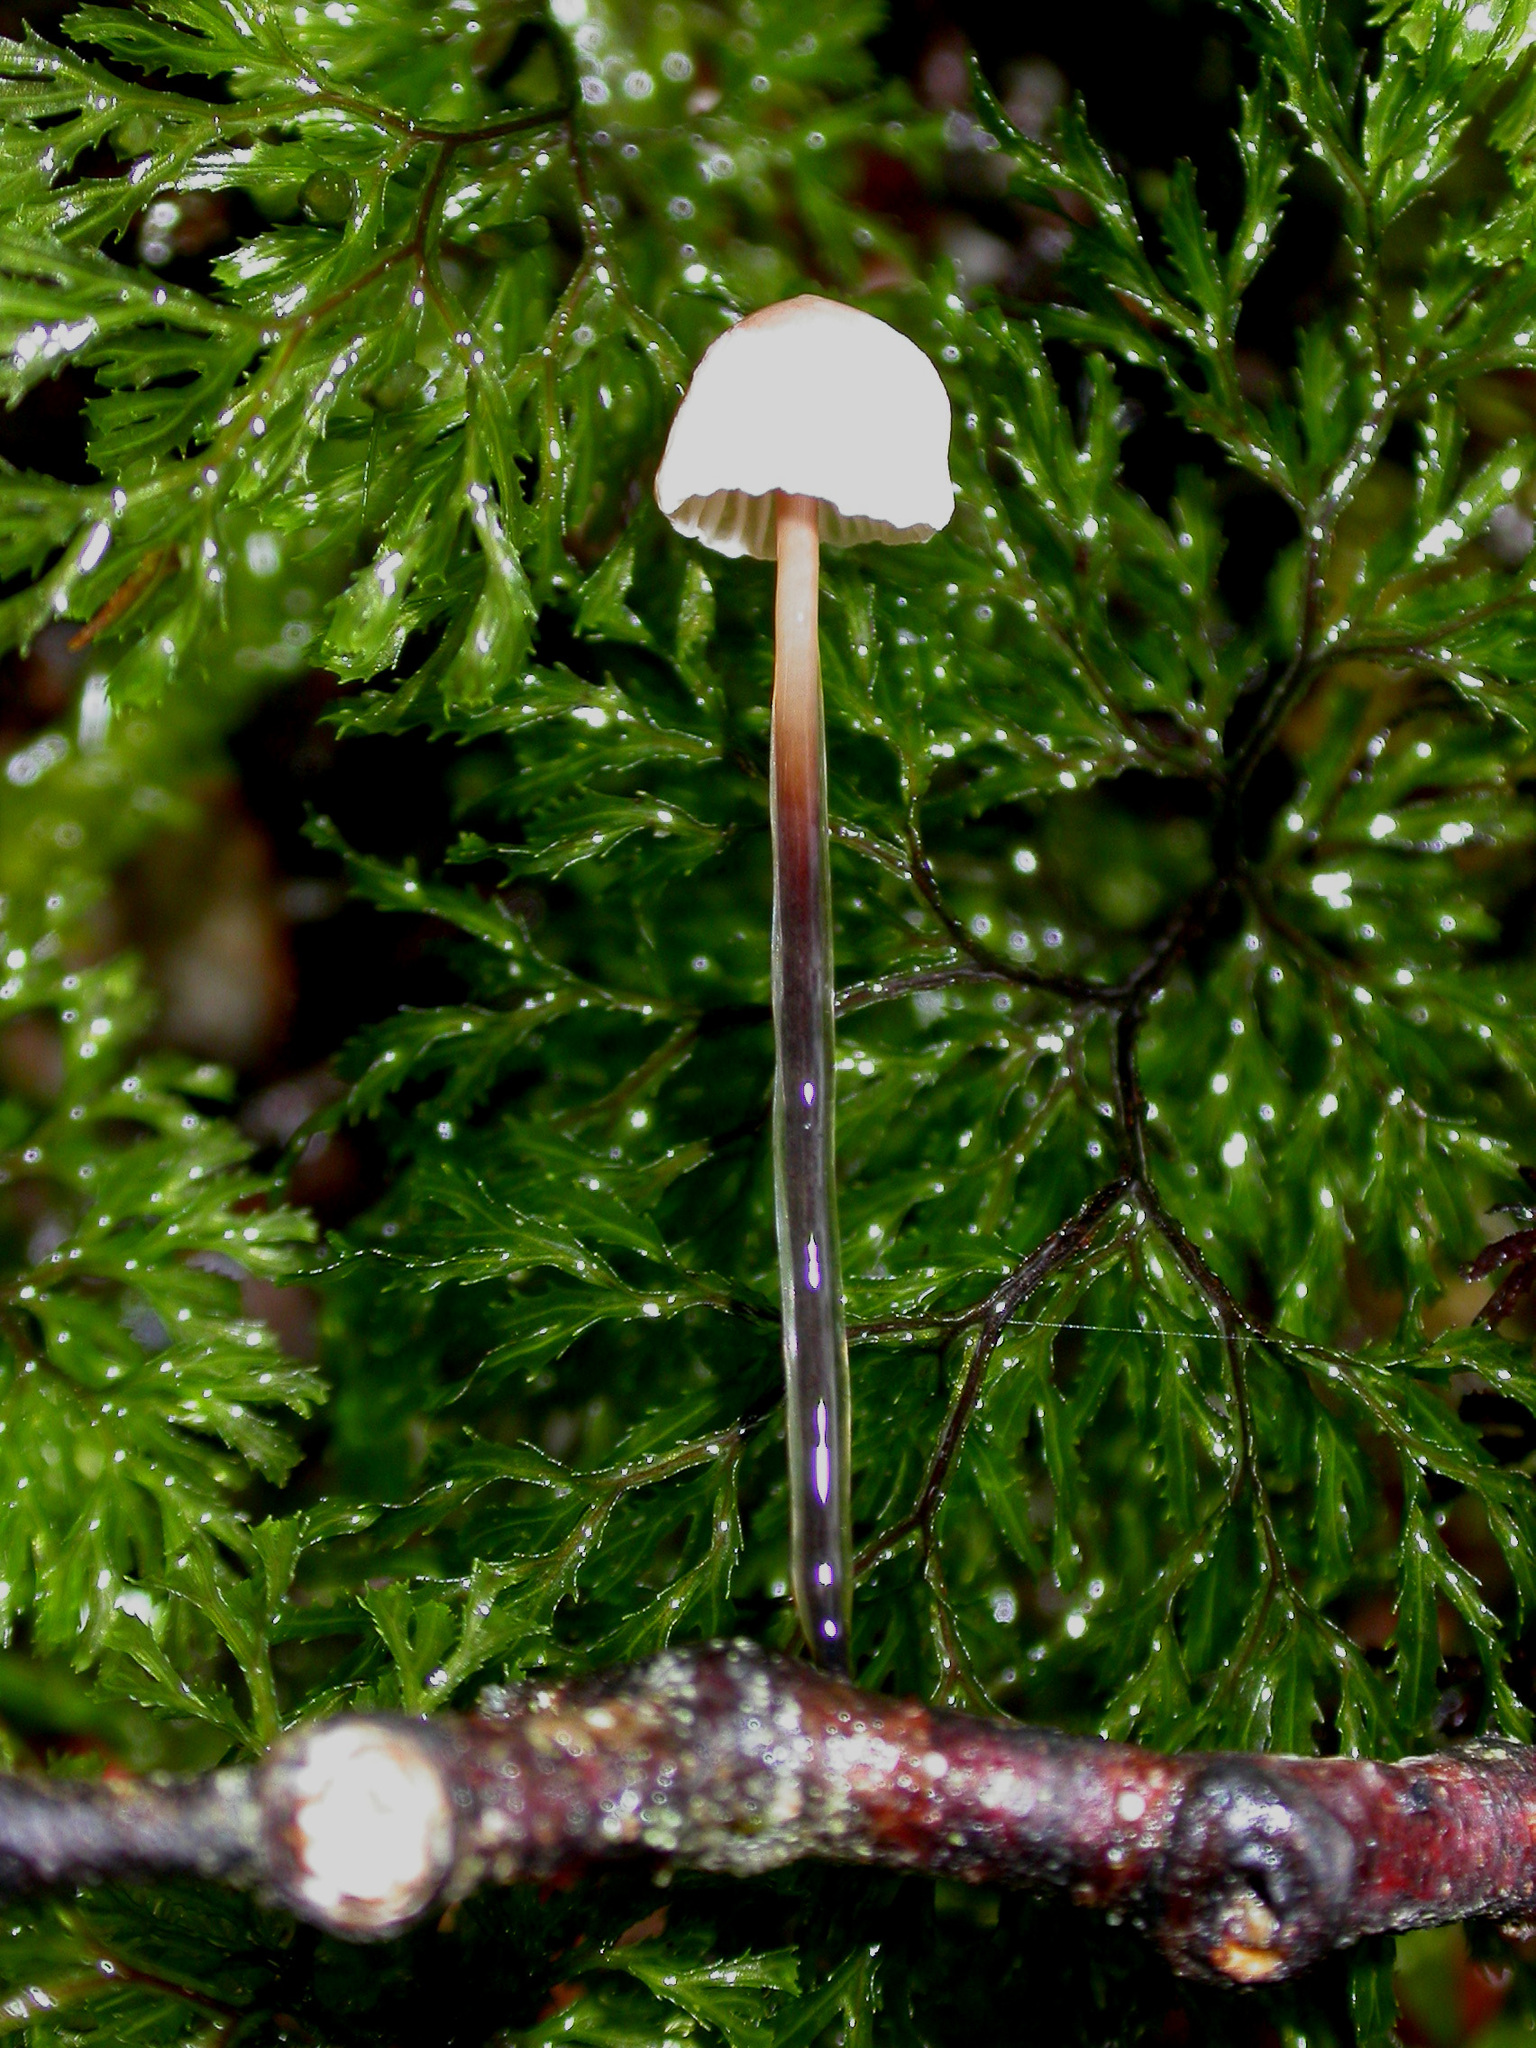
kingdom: Fungi
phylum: Basidiomycota
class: Agaricomycetes
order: Agaricales
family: Omphalotaceae
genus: Gymnopus
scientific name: Gymnopus
